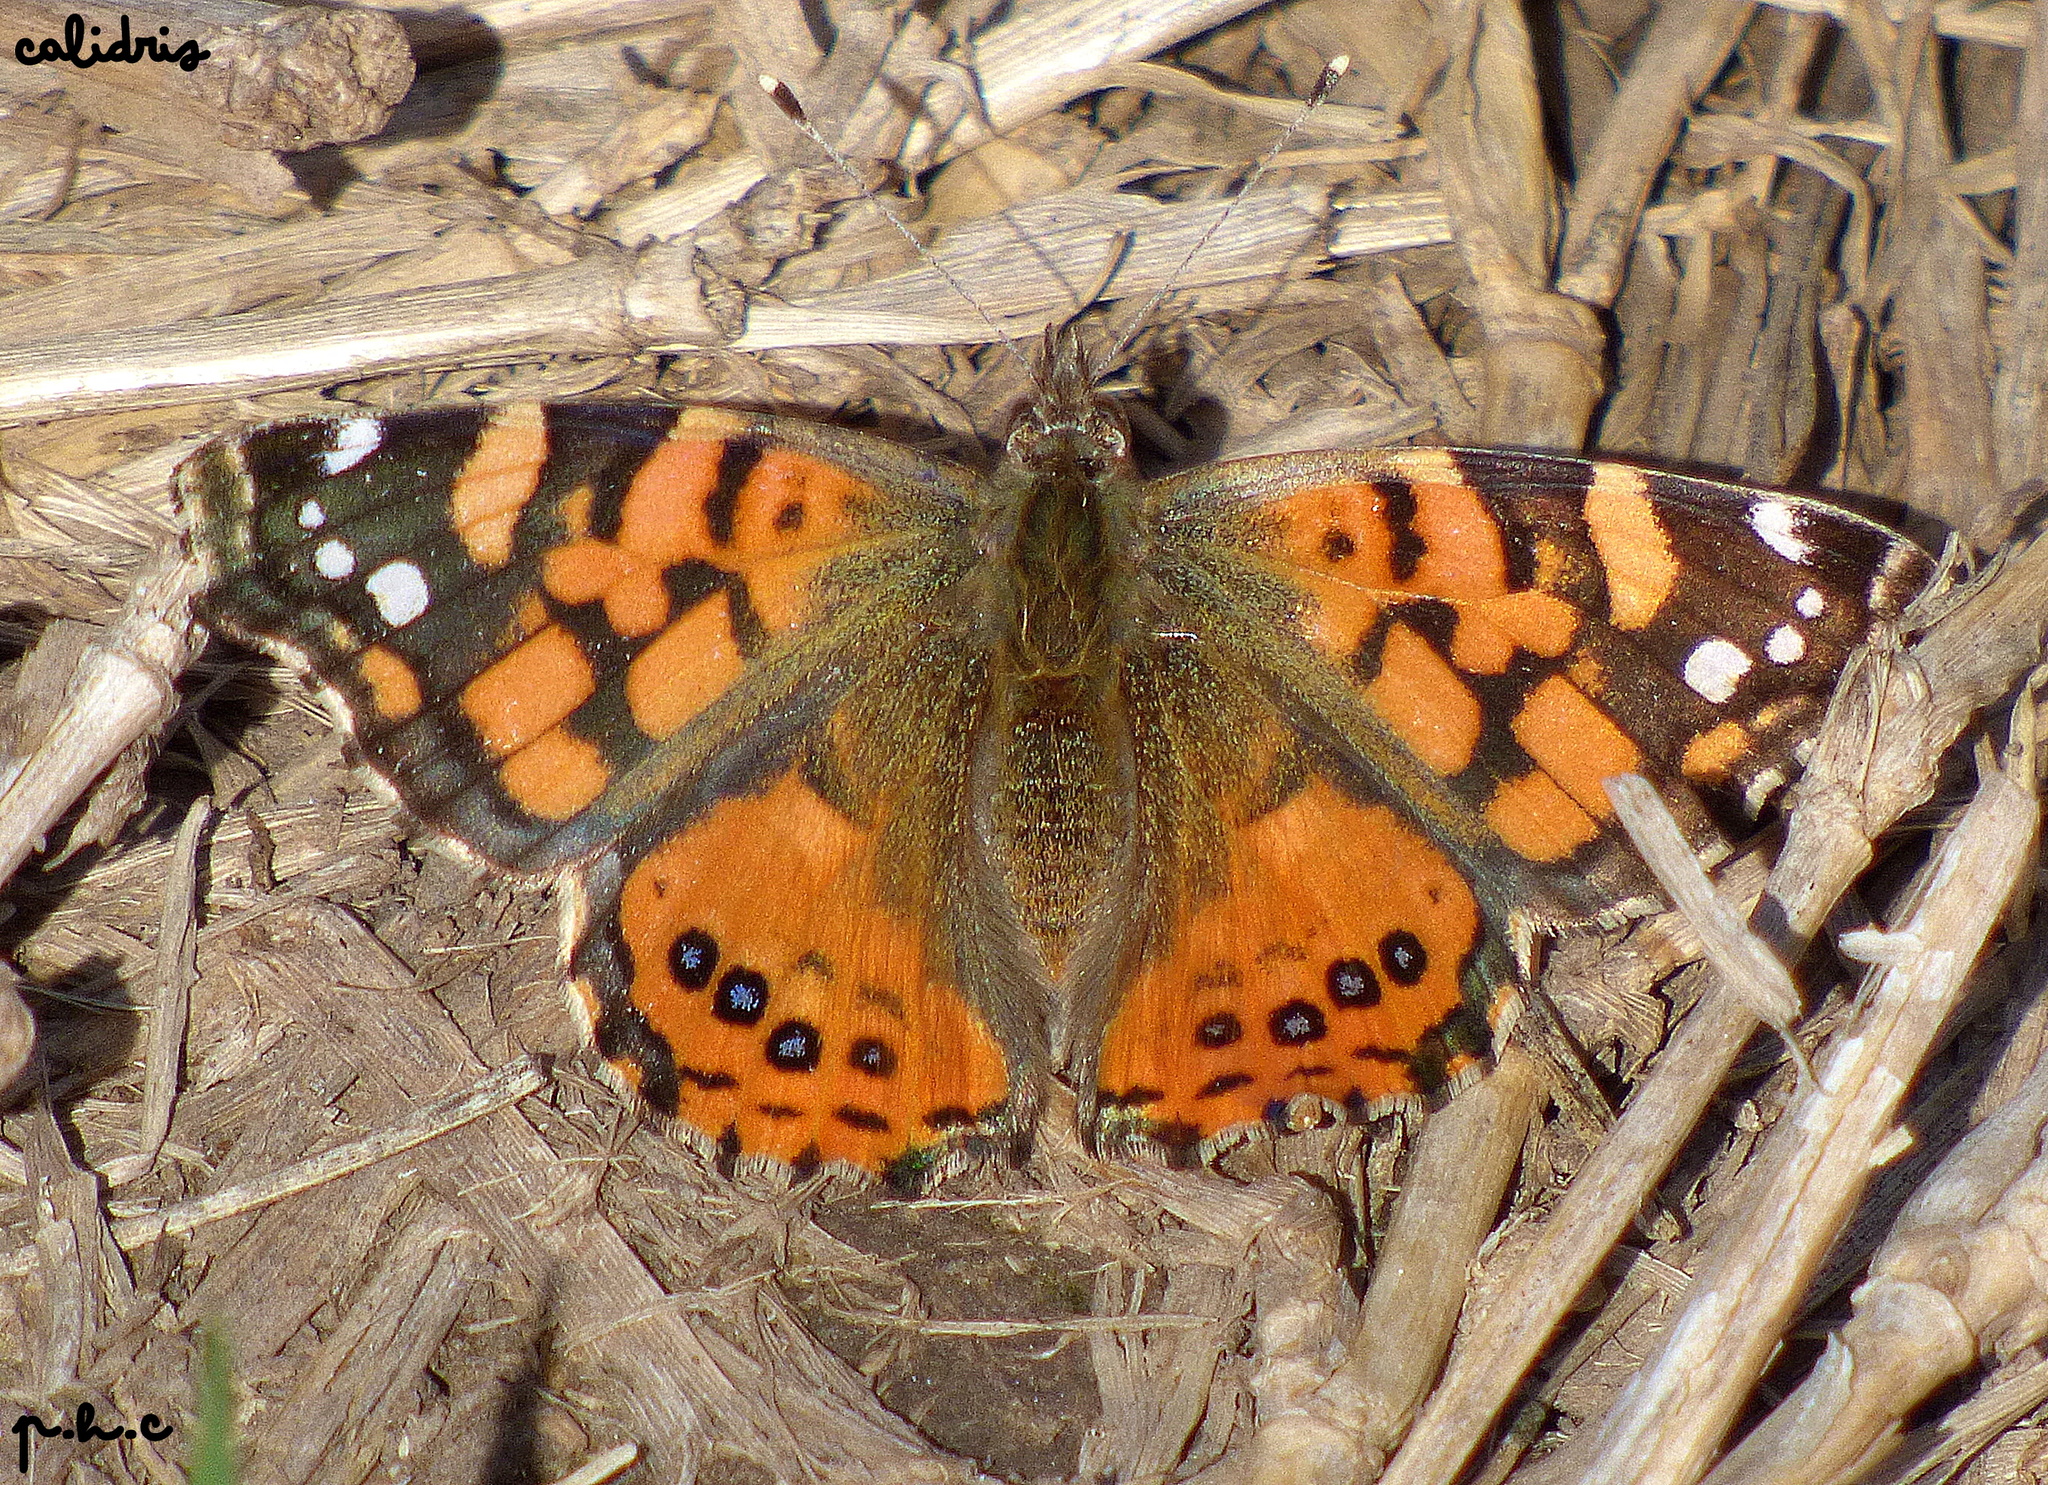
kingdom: Animalia
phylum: Arthropoda
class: Insecta
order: Lepidoptera
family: Nymphalidae
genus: Vanessa
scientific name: Vanessa carye
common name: Subtropical lady
